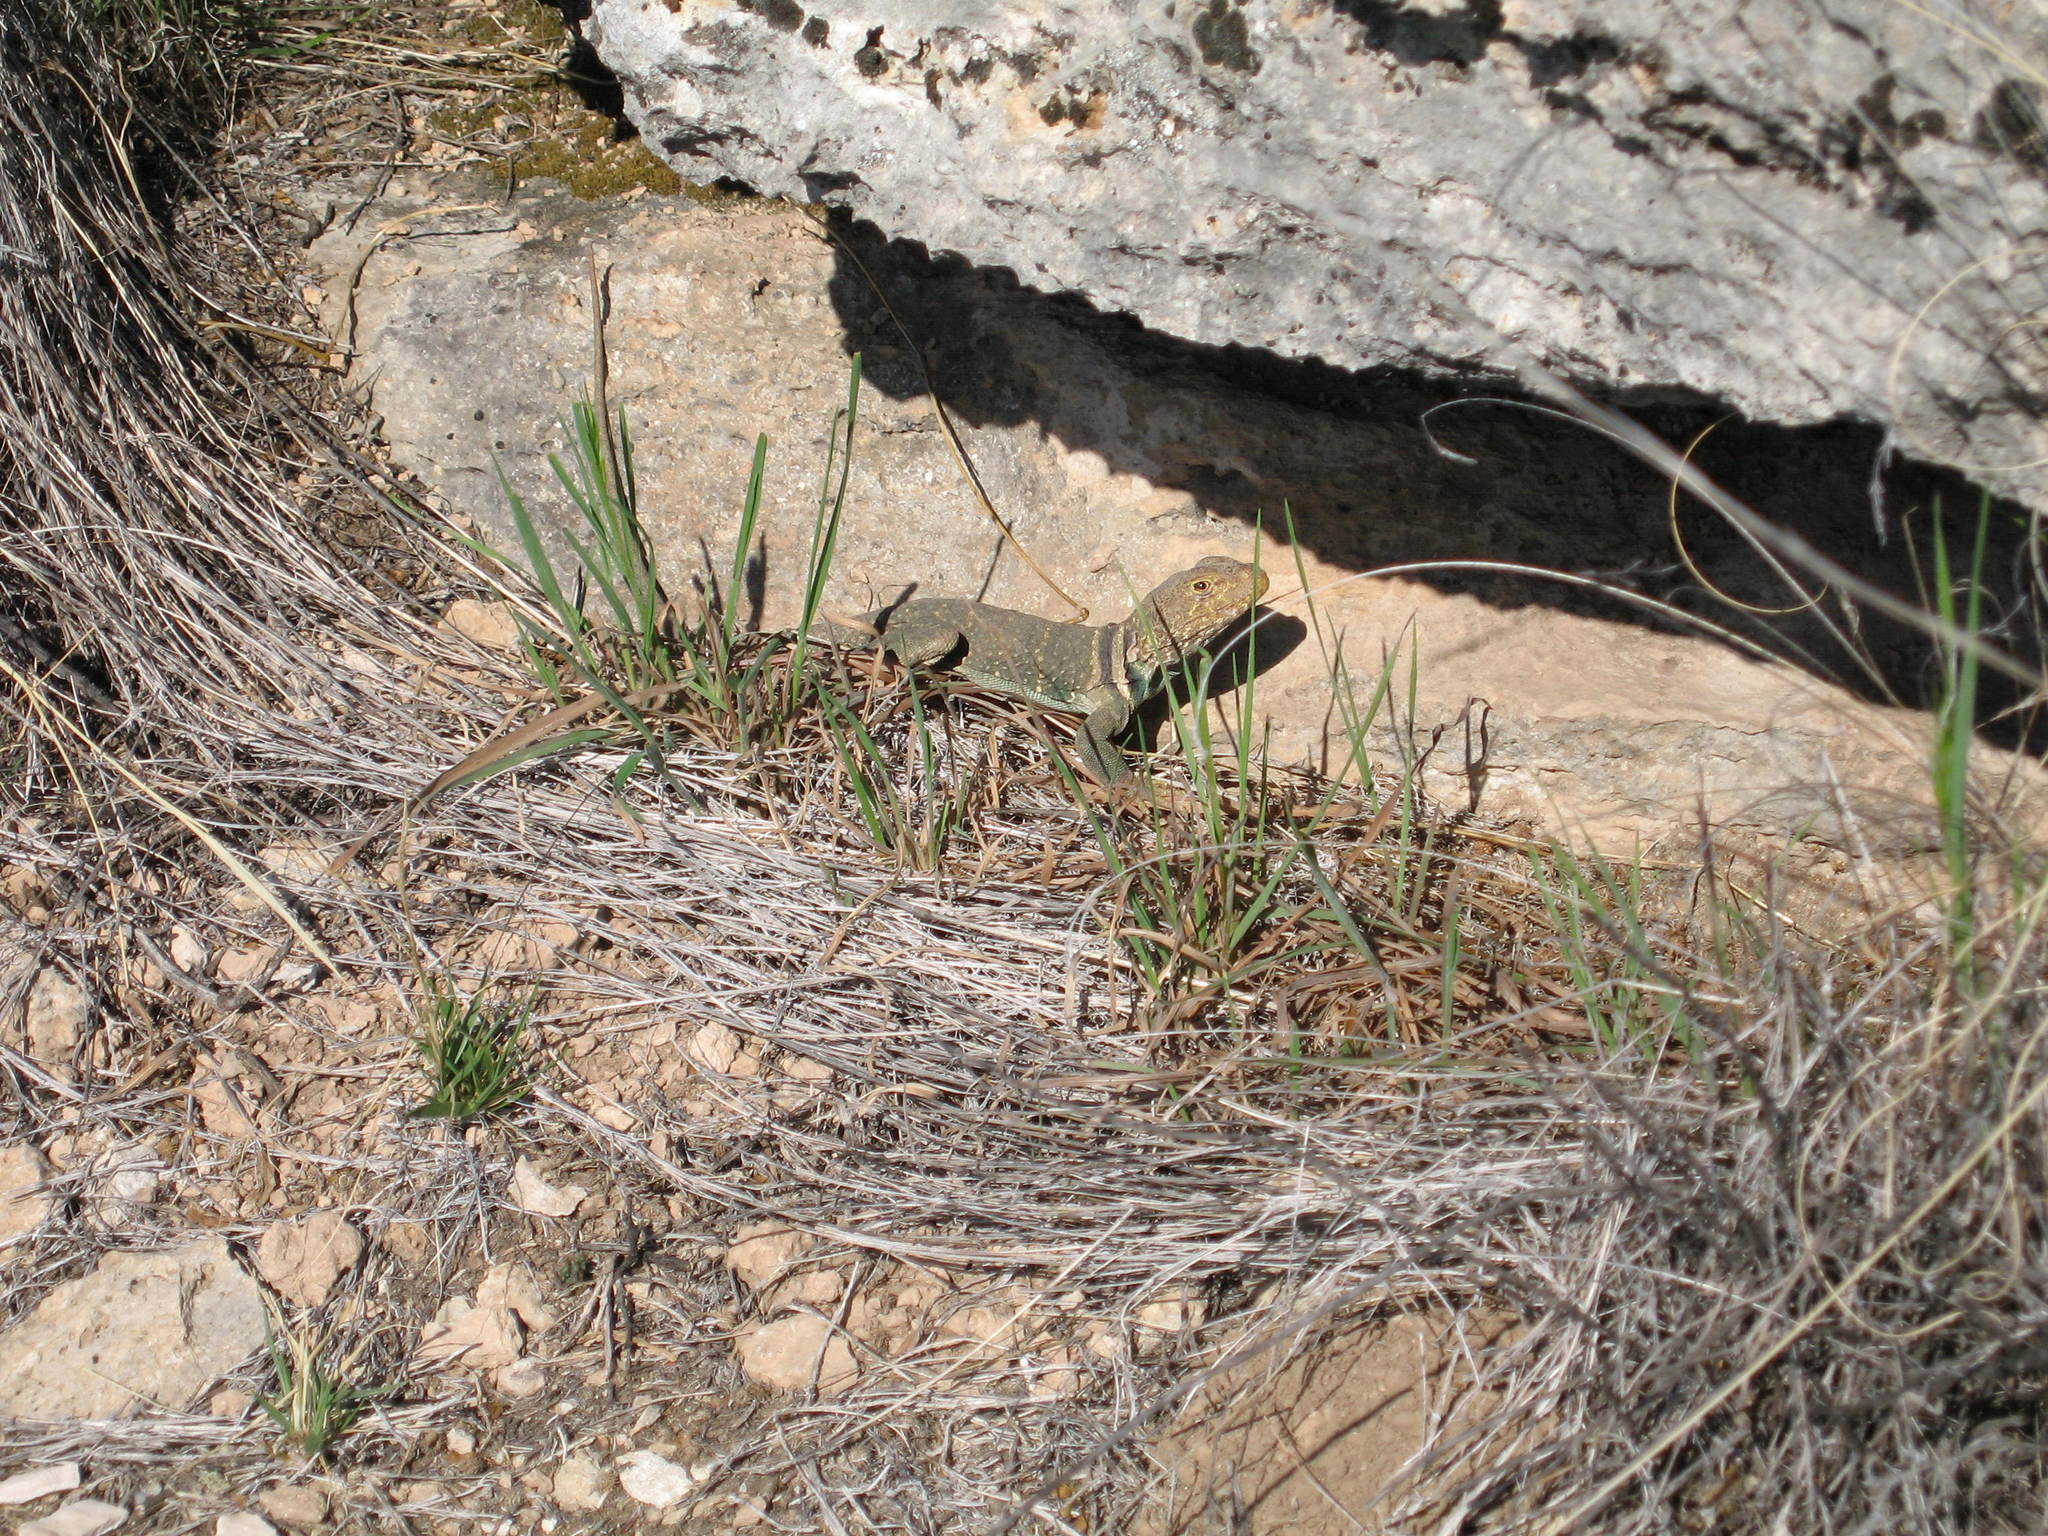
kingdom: Animalia
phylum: Chordata
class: Squamata
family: Crotaphytidae
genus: Crotaphytus
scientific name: Crotaphytus collaris
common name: Collared lizard
